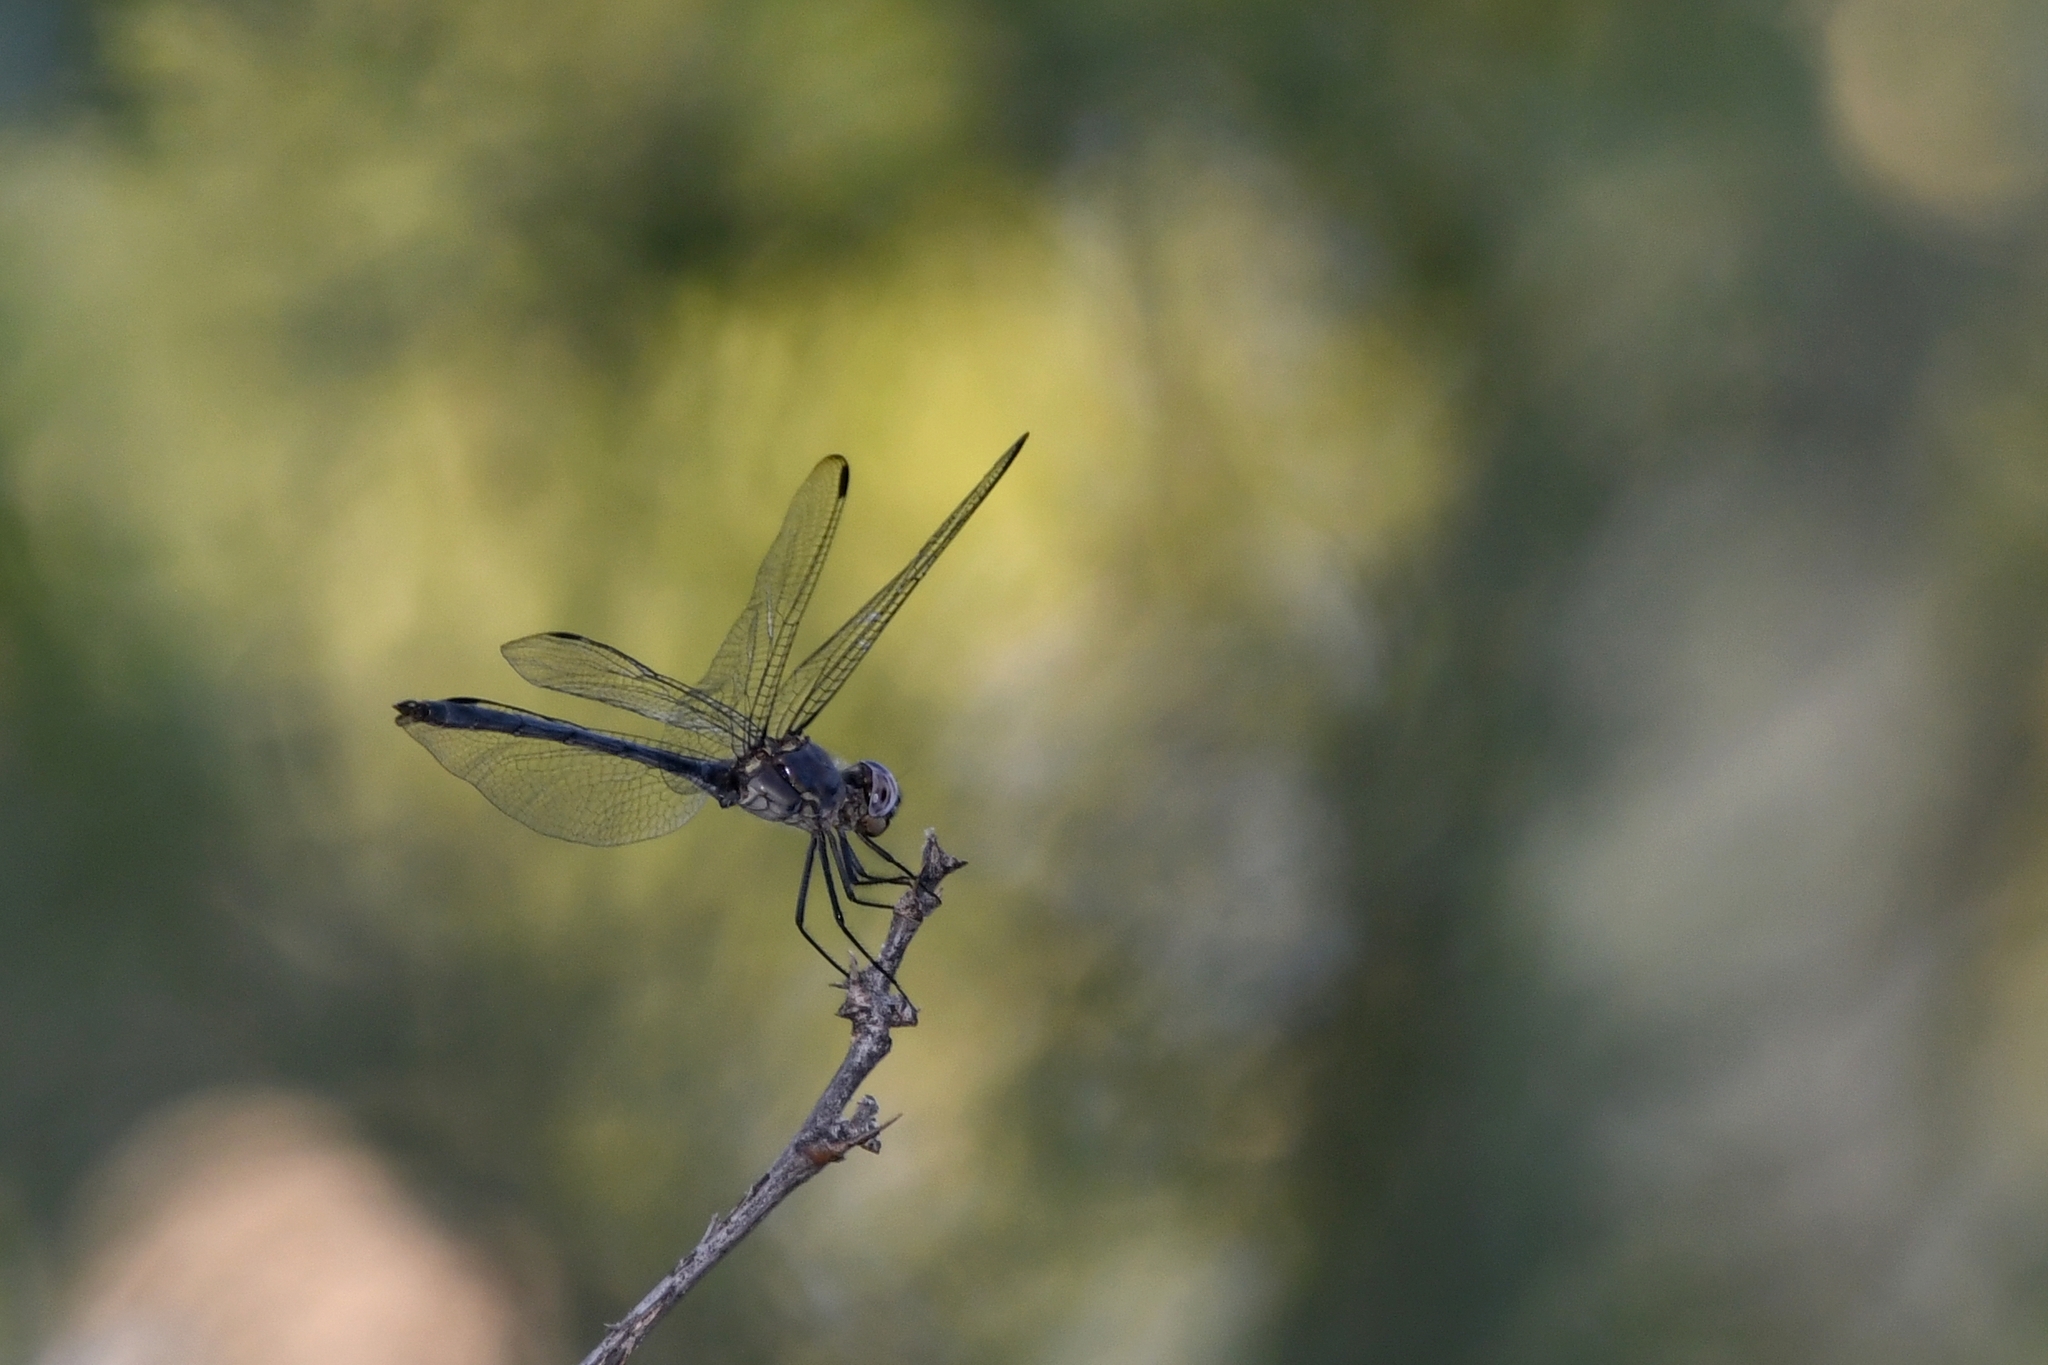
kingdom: Animalia
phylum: Arthropoda
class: Insecta
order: Odonata
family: Libellulidae
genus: Dythemis
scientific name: Dythemis nigrescens
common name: Black setwing
